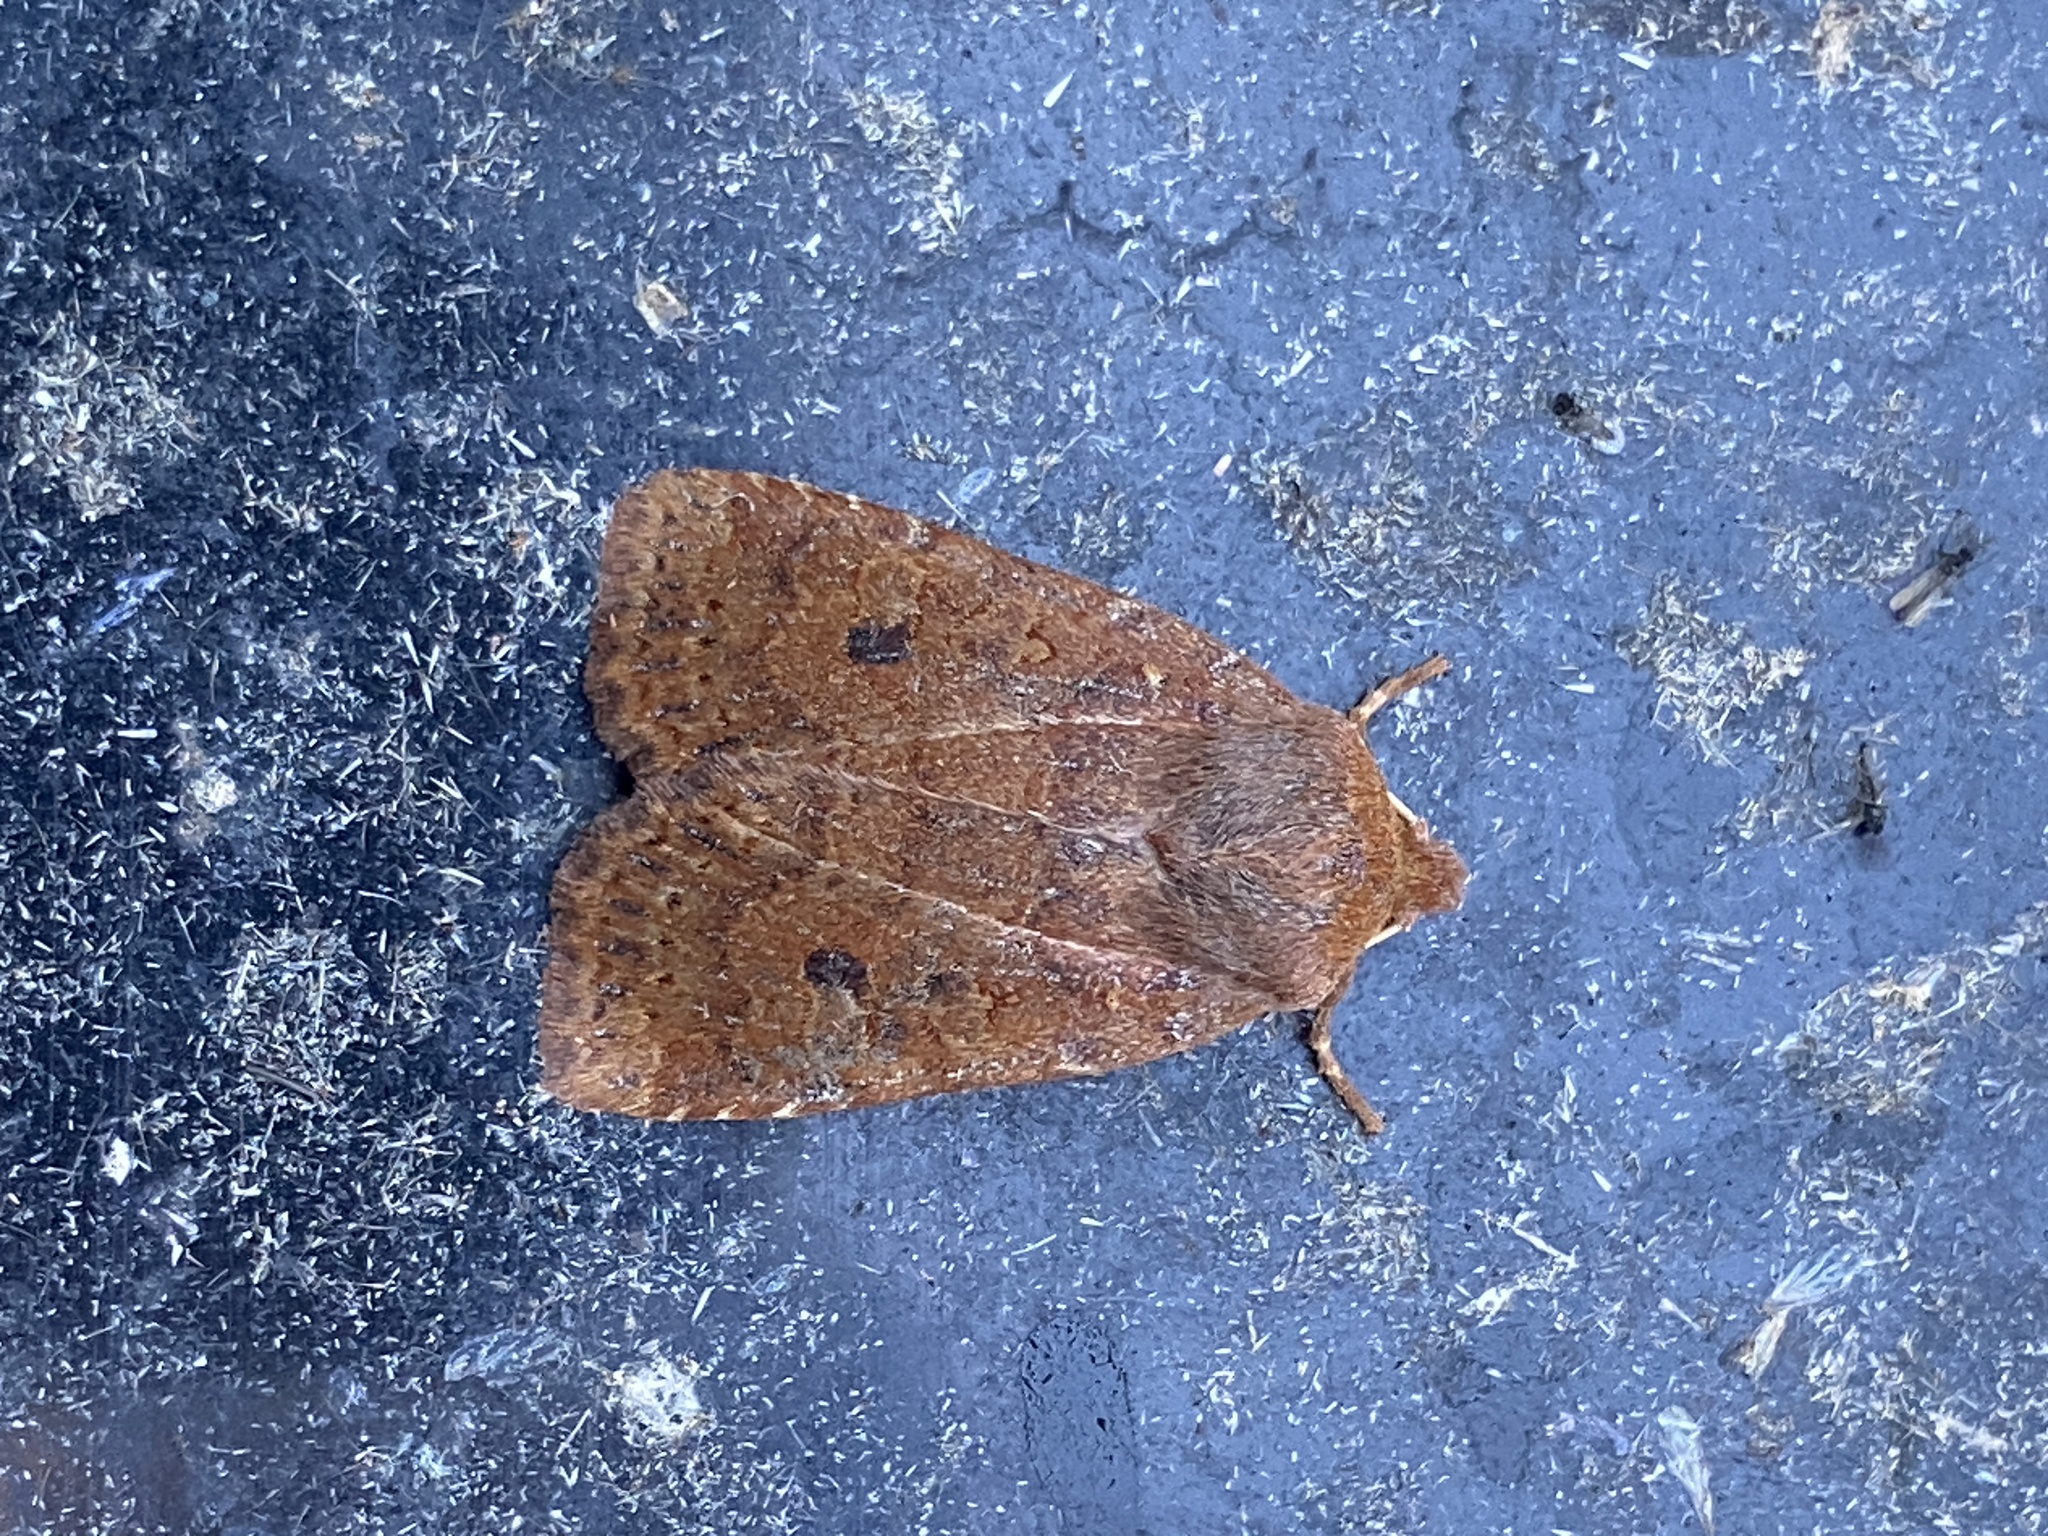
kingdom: Animalia
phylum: Arthropoda
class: Insecta
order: Lepidoptera
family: Noctuidae
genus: Conistra
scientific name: Conistra vaccinii
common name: Chestnut
